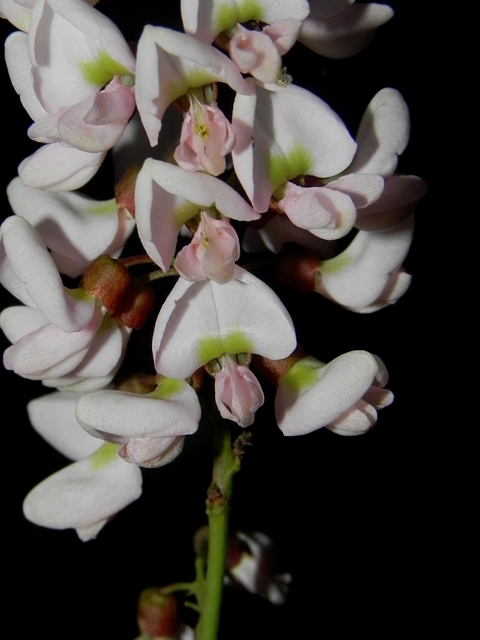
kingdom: Plantae
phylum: Tracheophyta
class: Magnoliopsida
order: Fabales
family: Fabaceae
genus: Derris
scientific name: Derris trifoliata
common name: Three-leaf derris
